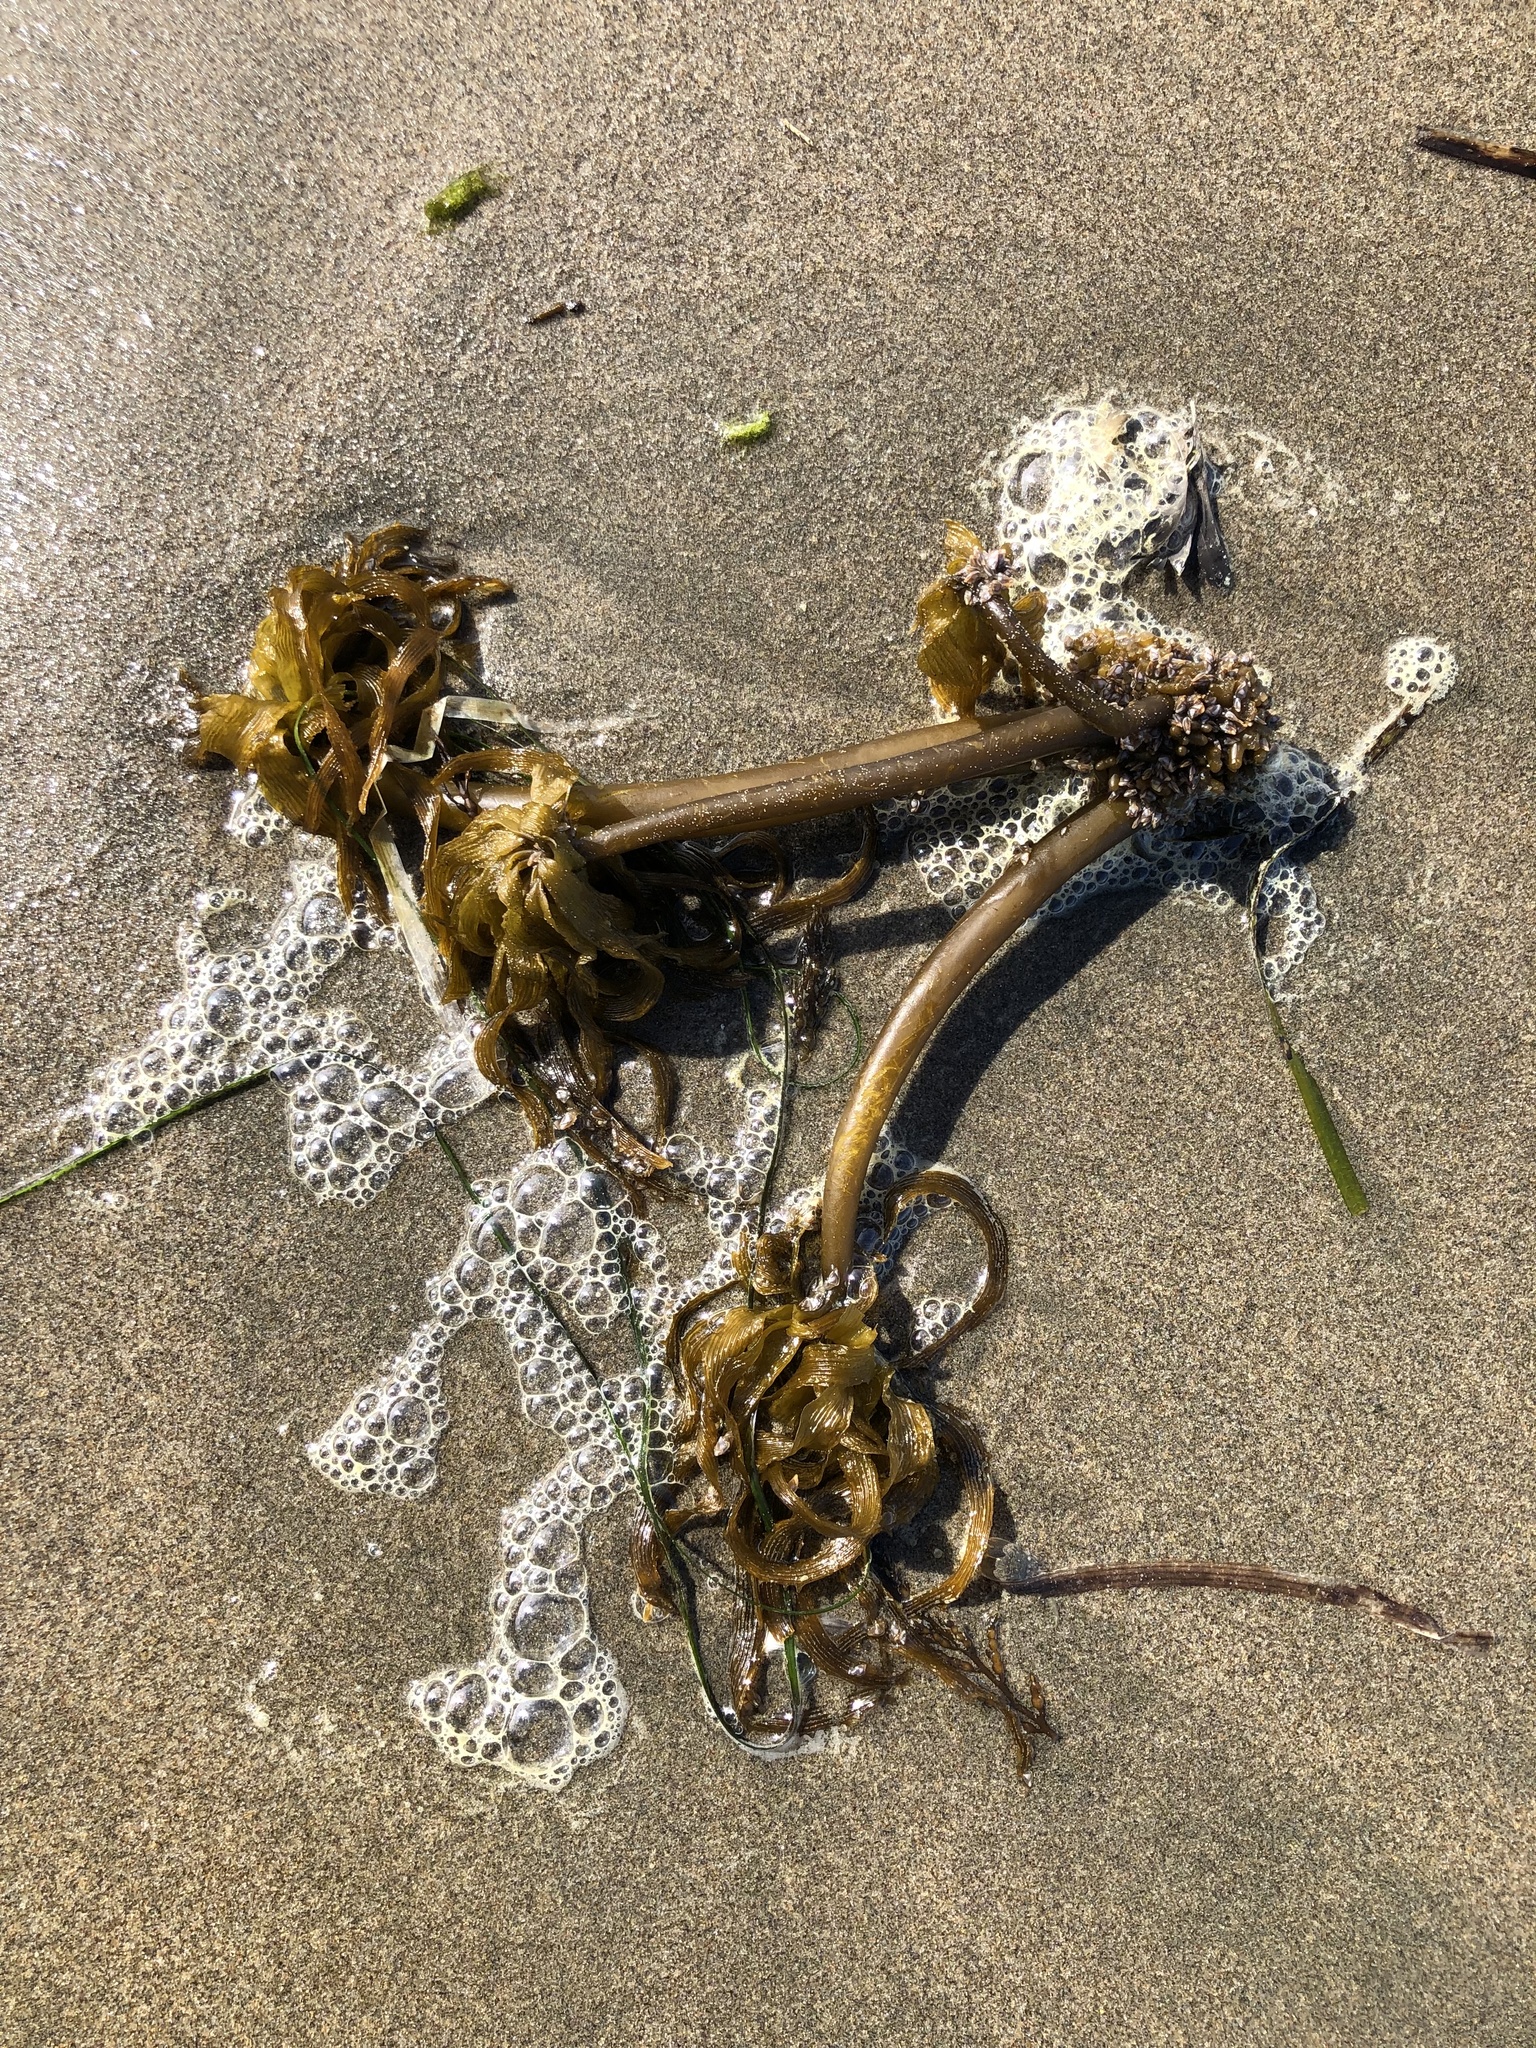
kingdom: Chromista
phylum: Ochrophyta
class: Phaeophyceae
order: Laminariales
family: Laminariaceae
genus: Postelsia
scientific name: Postelsia palmiformis
